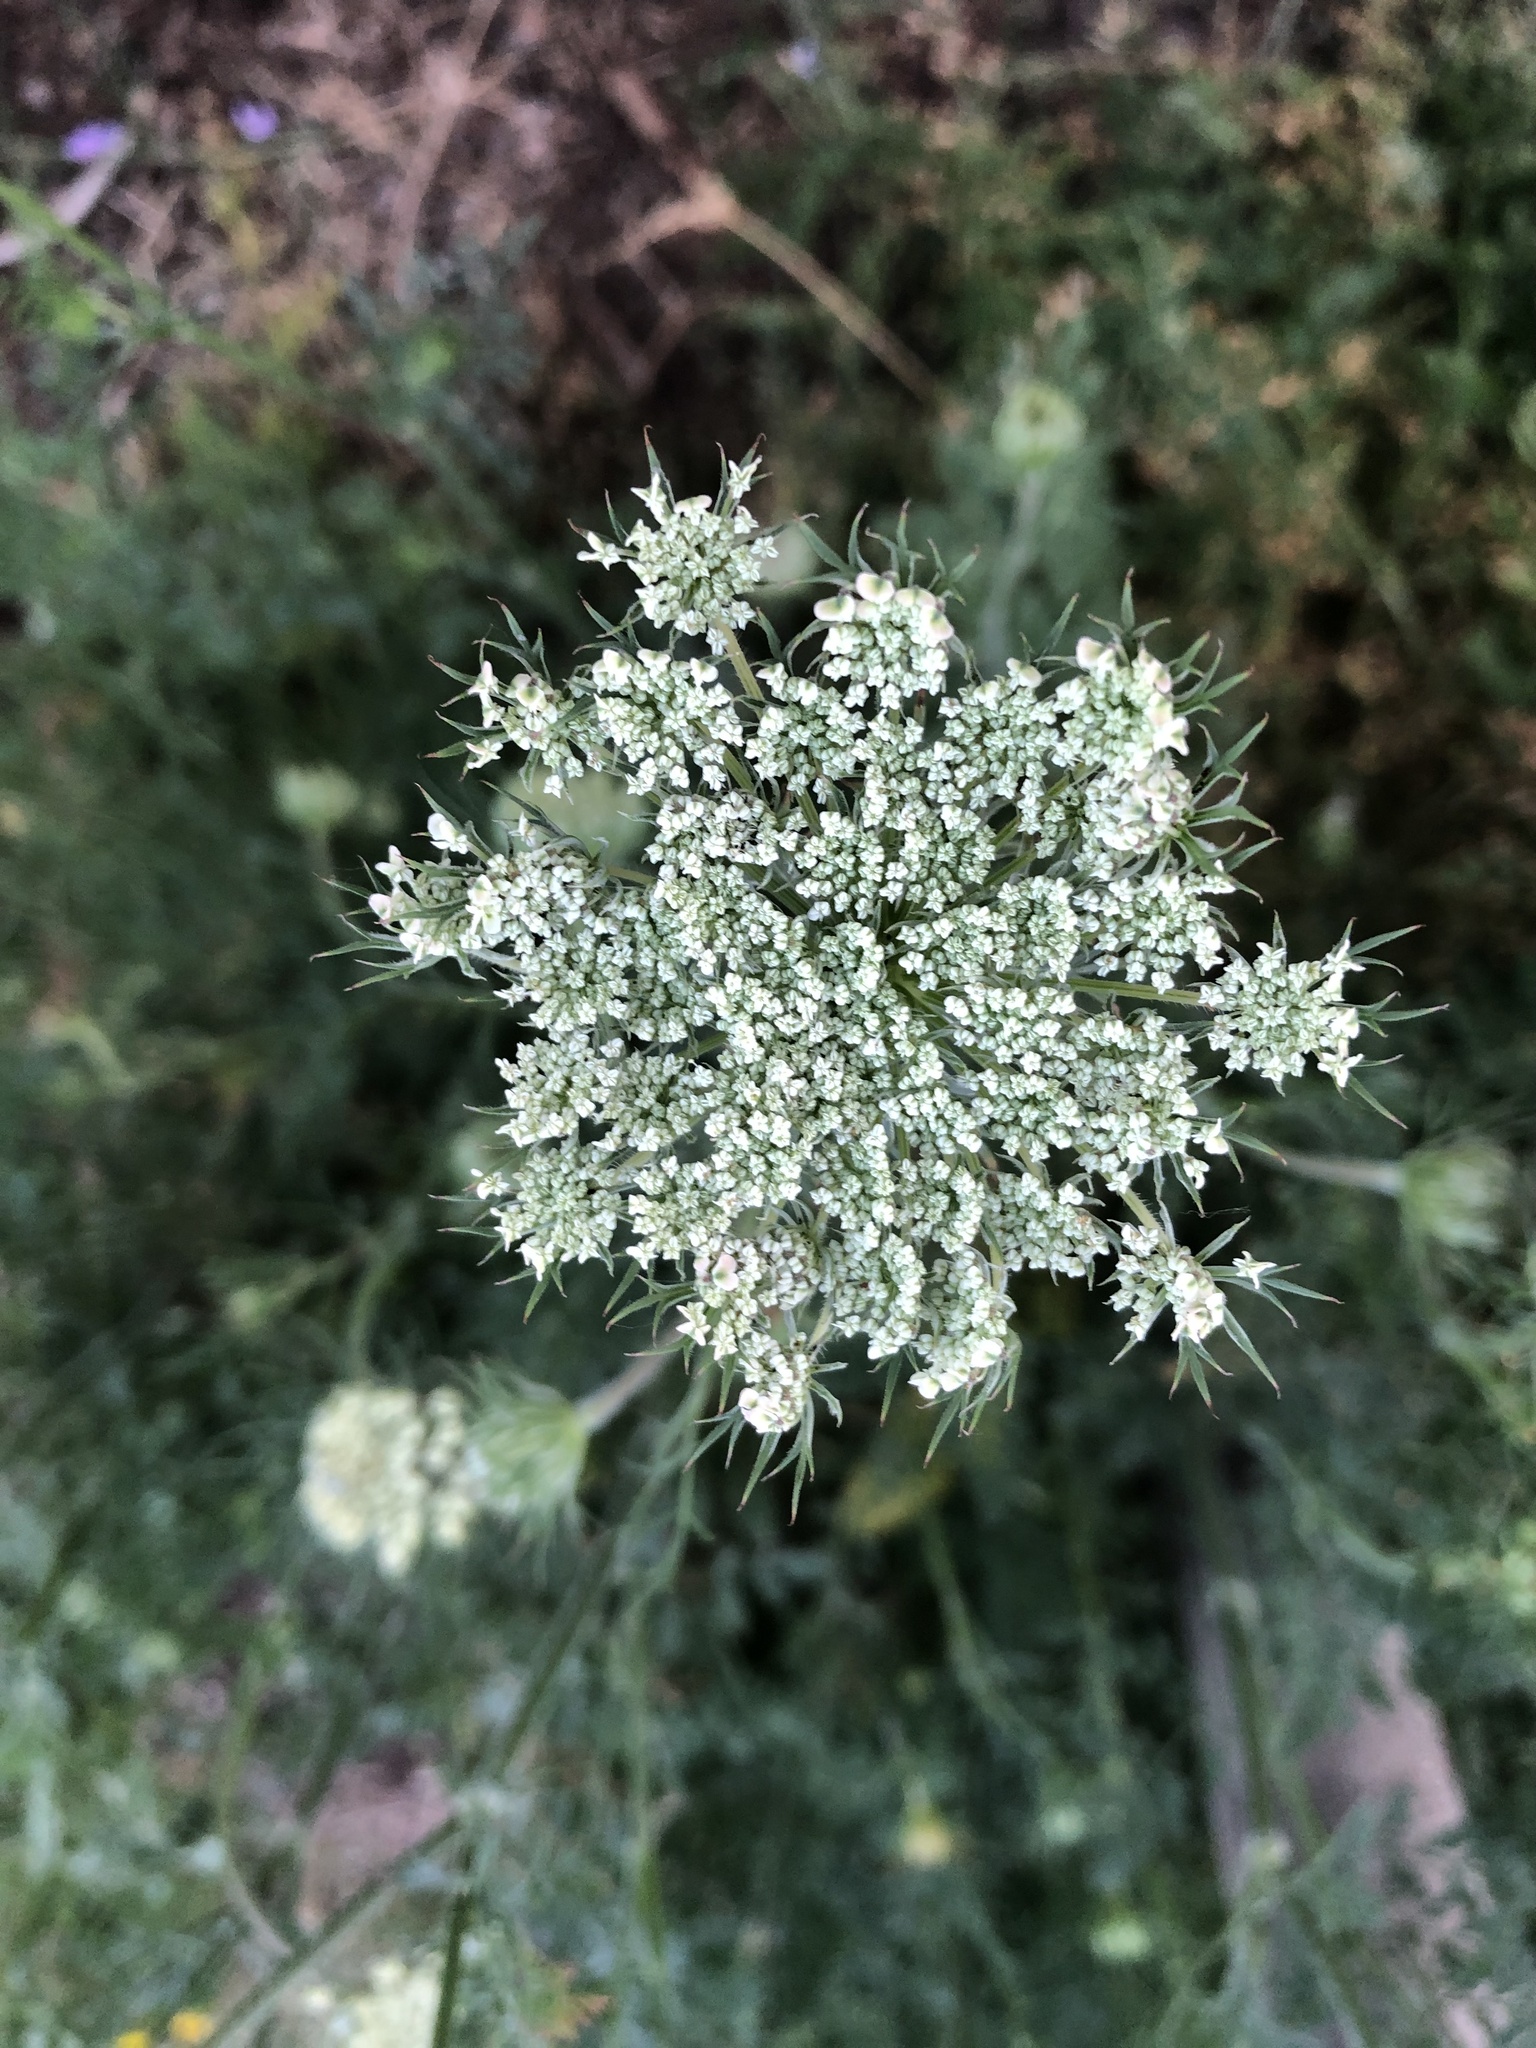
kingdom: Plantae
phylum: Tracheophyta
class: Magnoliopsida
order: Apiales
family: Apiaceae
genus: Daucus
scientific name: Daucus carota
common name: Wild carrot
